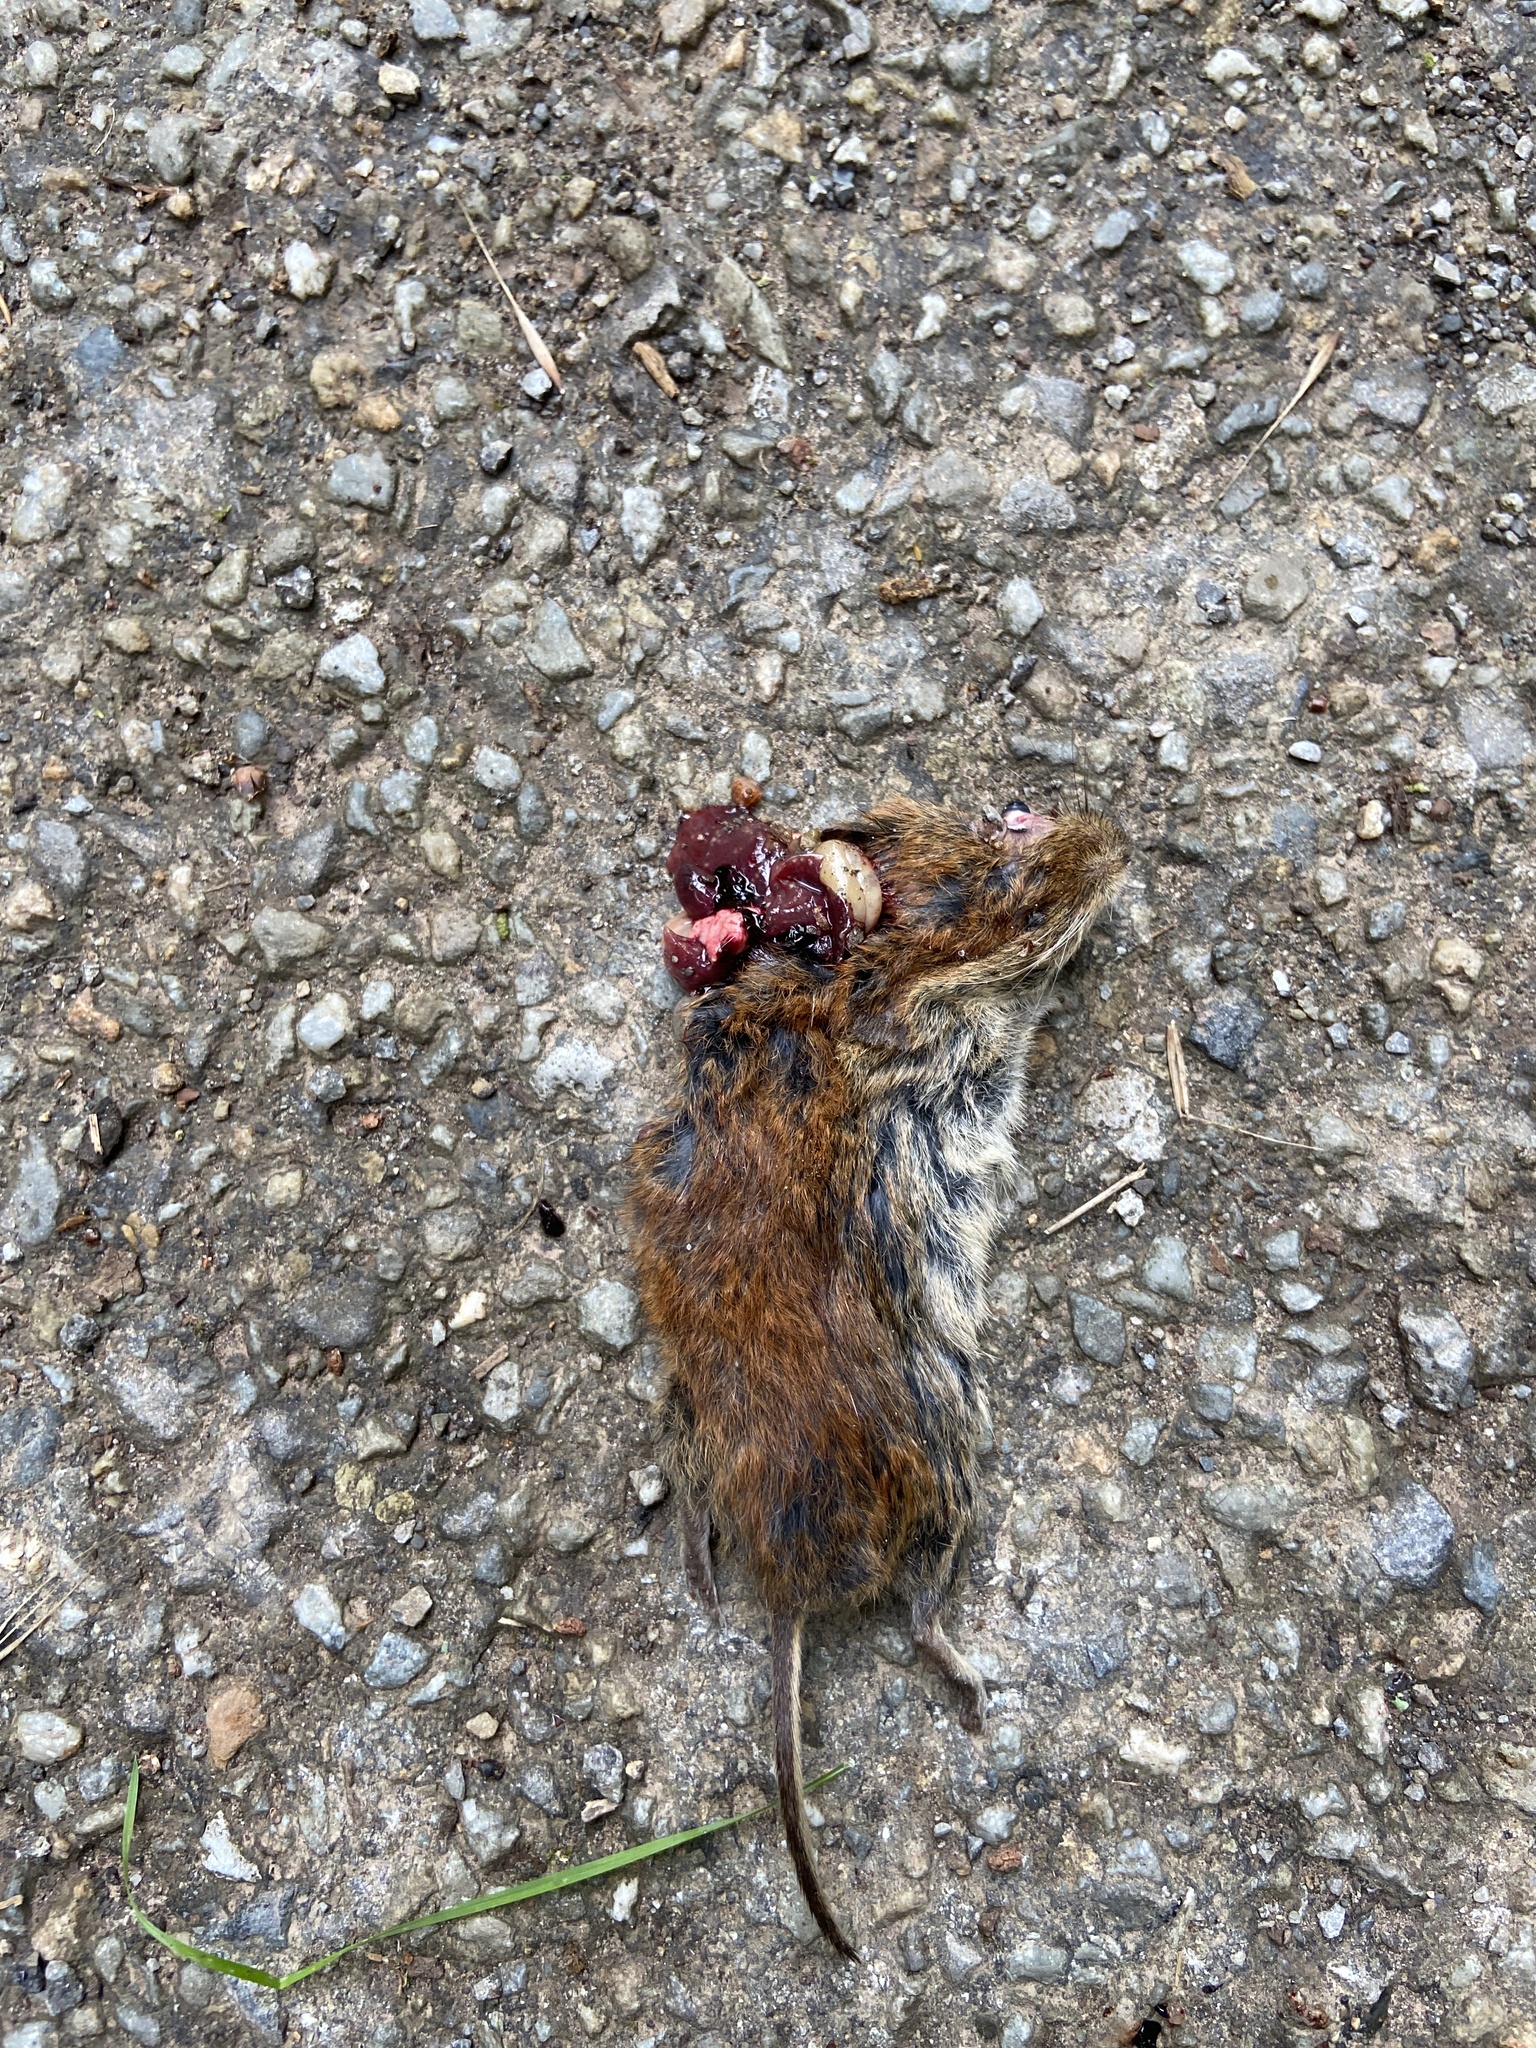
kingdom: Animalia
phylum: Chordata
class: Mammalia
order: Rodentia
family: Cricetidae
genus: Myodes
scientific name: Myodes glareolus
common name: Bank vole
